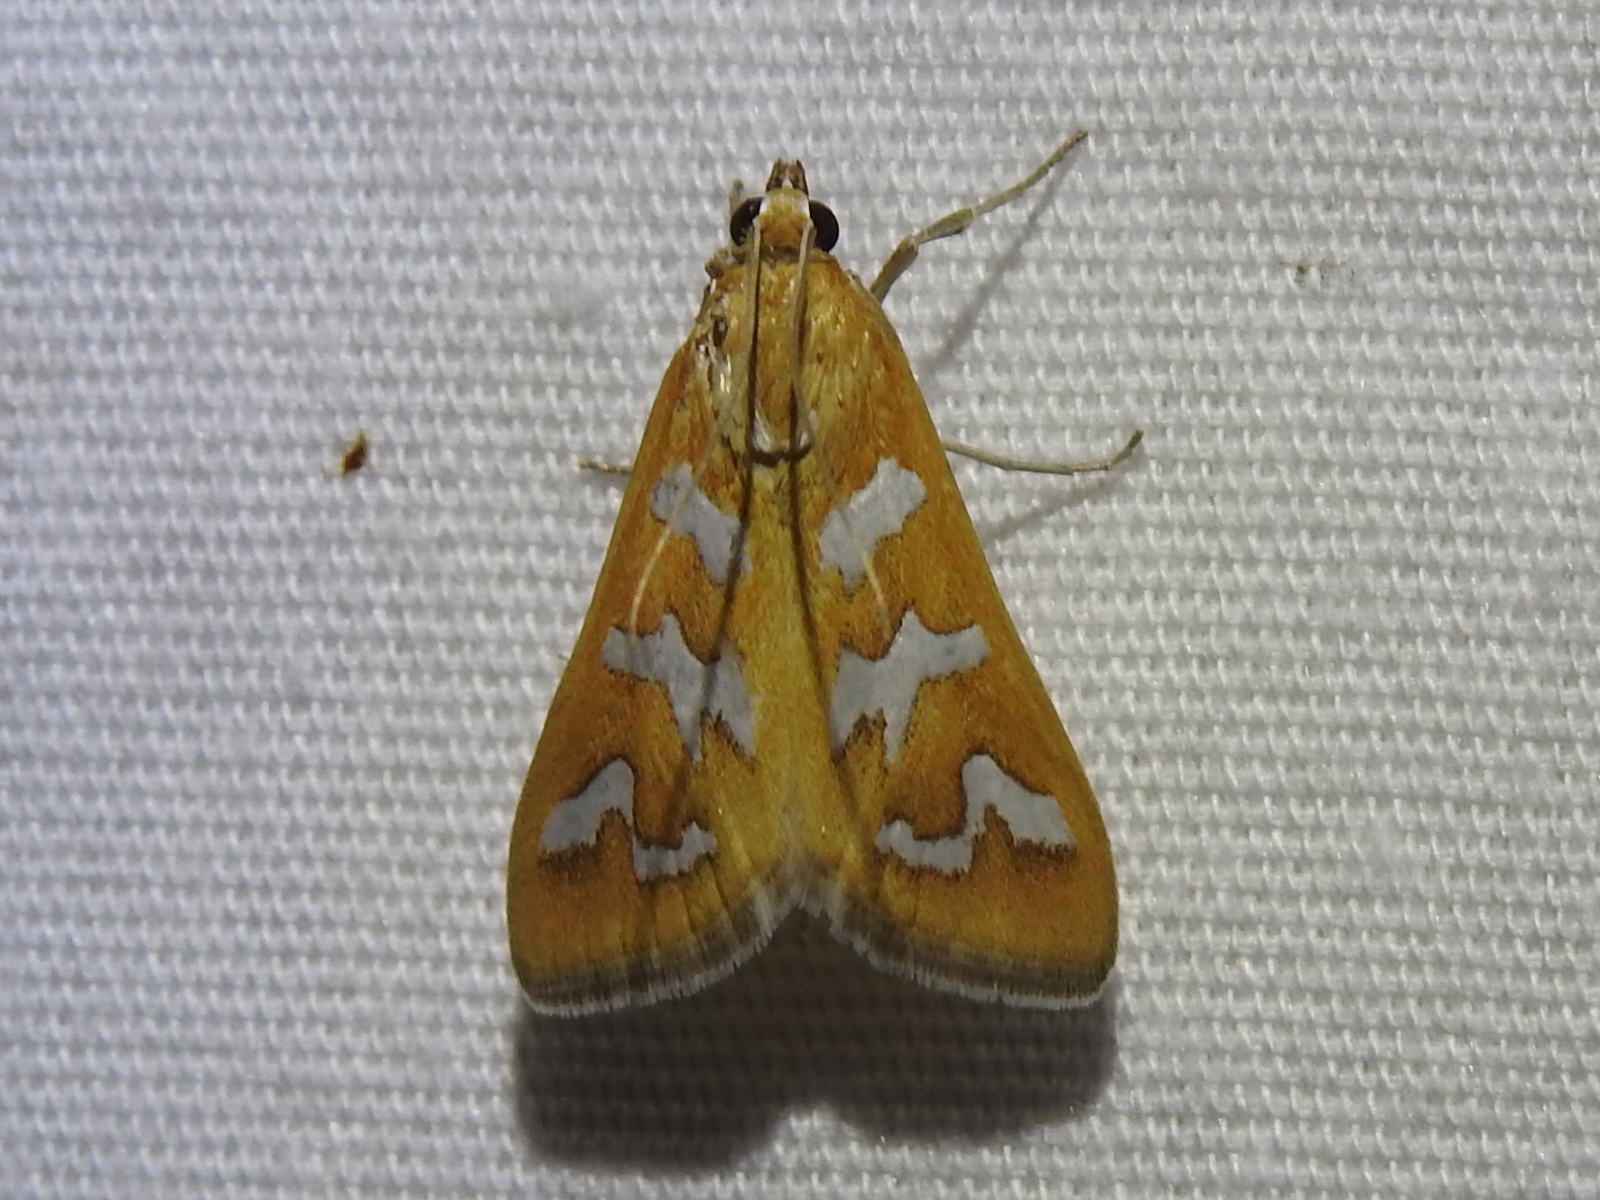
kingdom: Animalia
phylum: Arthropoda
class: Insecta
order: Lepidoptera
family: Crambidae
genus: Diastictis
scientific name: Diastictis fracturalis
